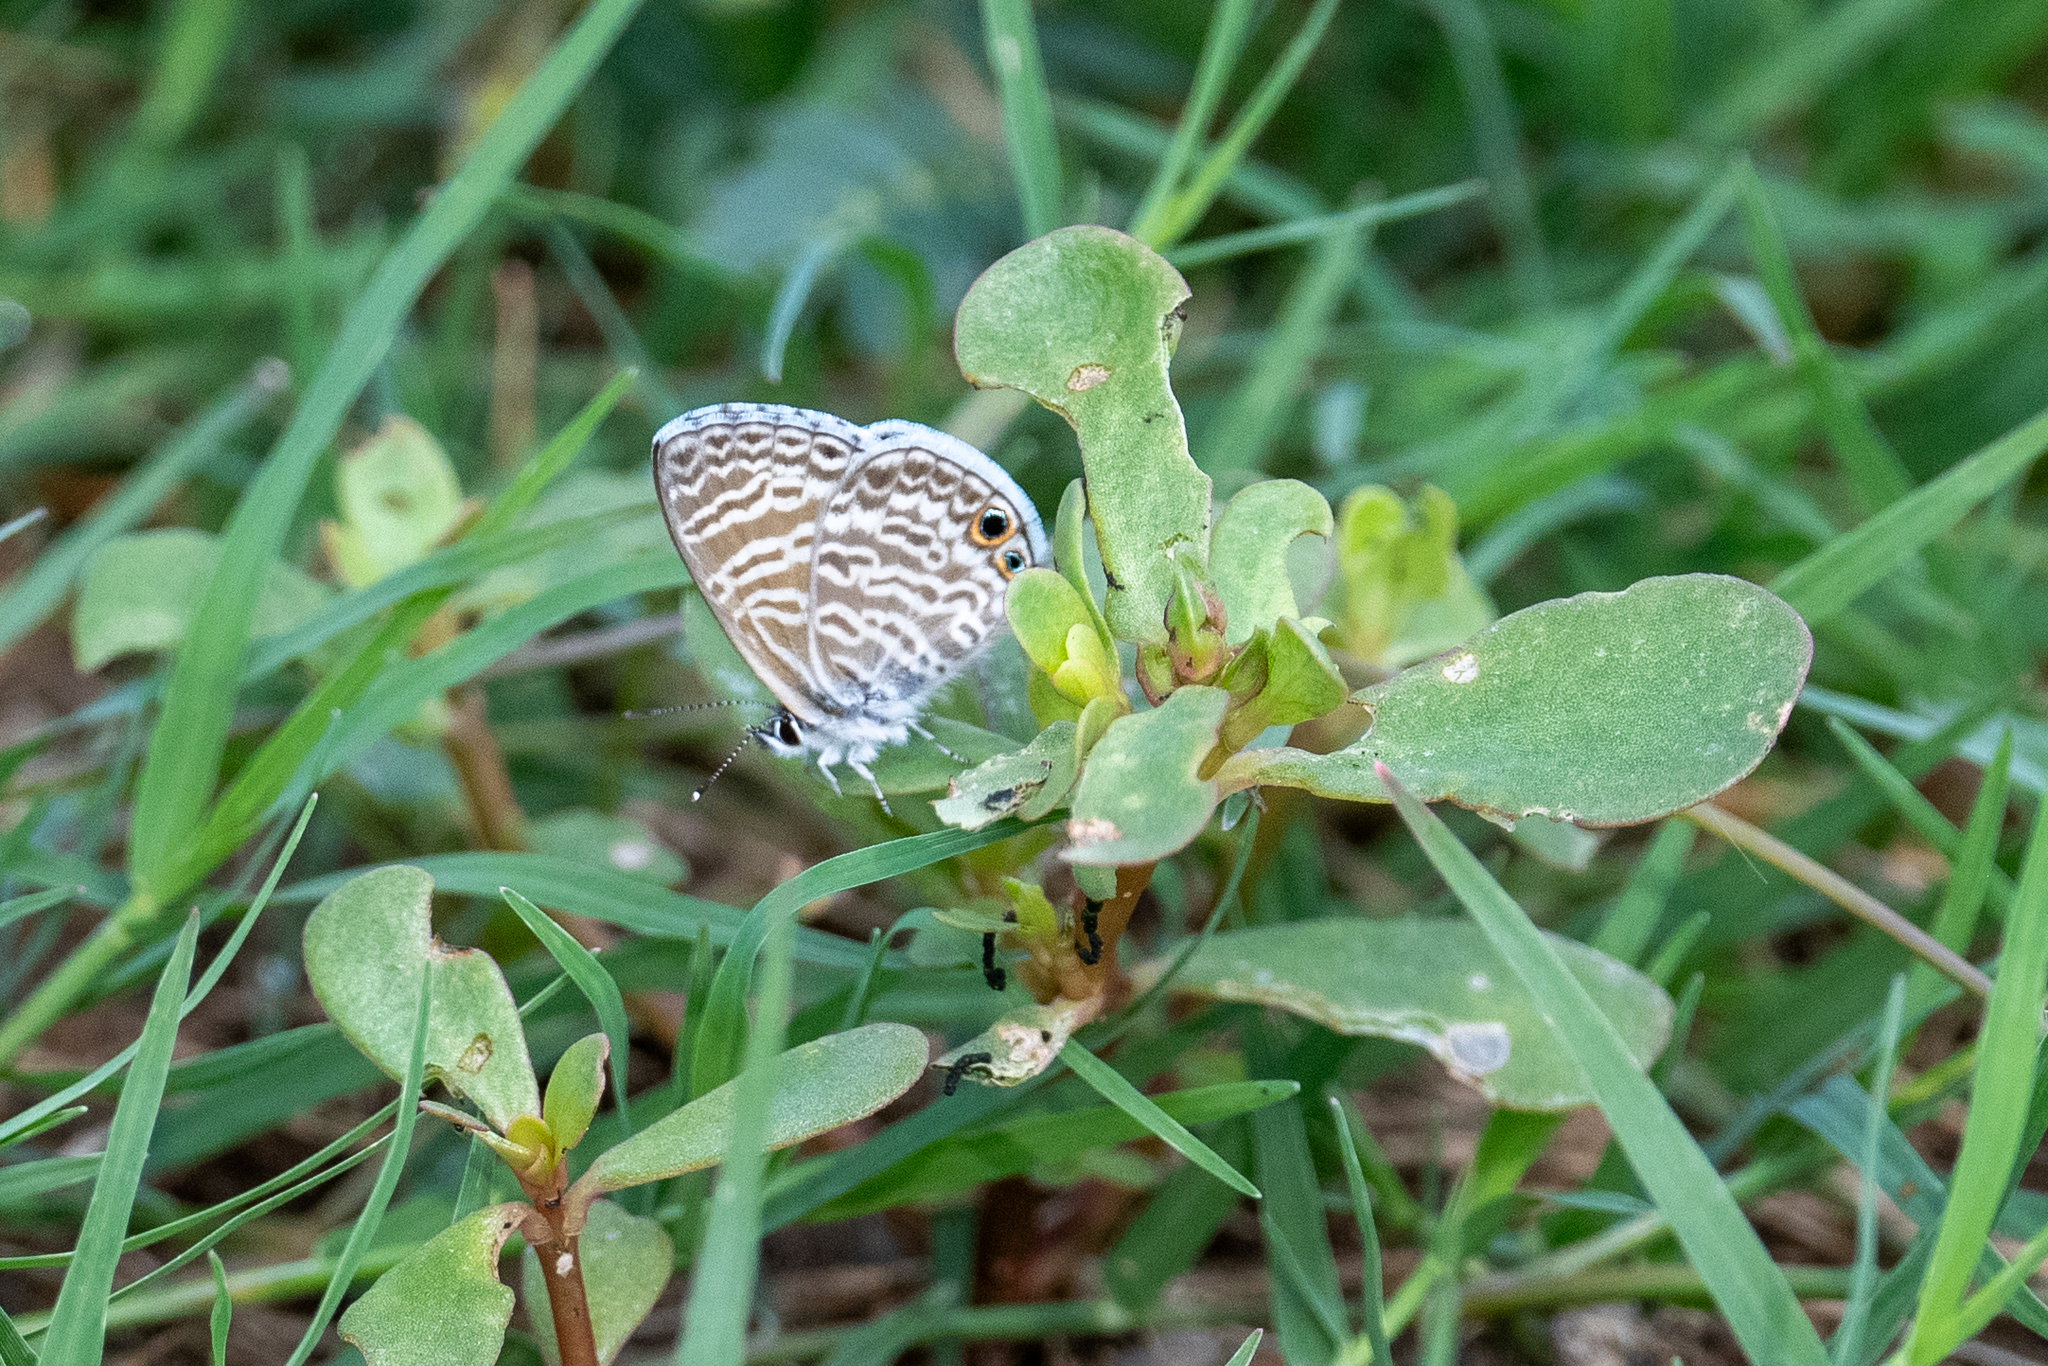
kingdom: Animalia
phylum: Arthropoda
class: Insecta
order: Lepidoptera
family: Lycaenidae
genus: Leptotes
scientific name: Leptotes marina
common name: Marine blue
